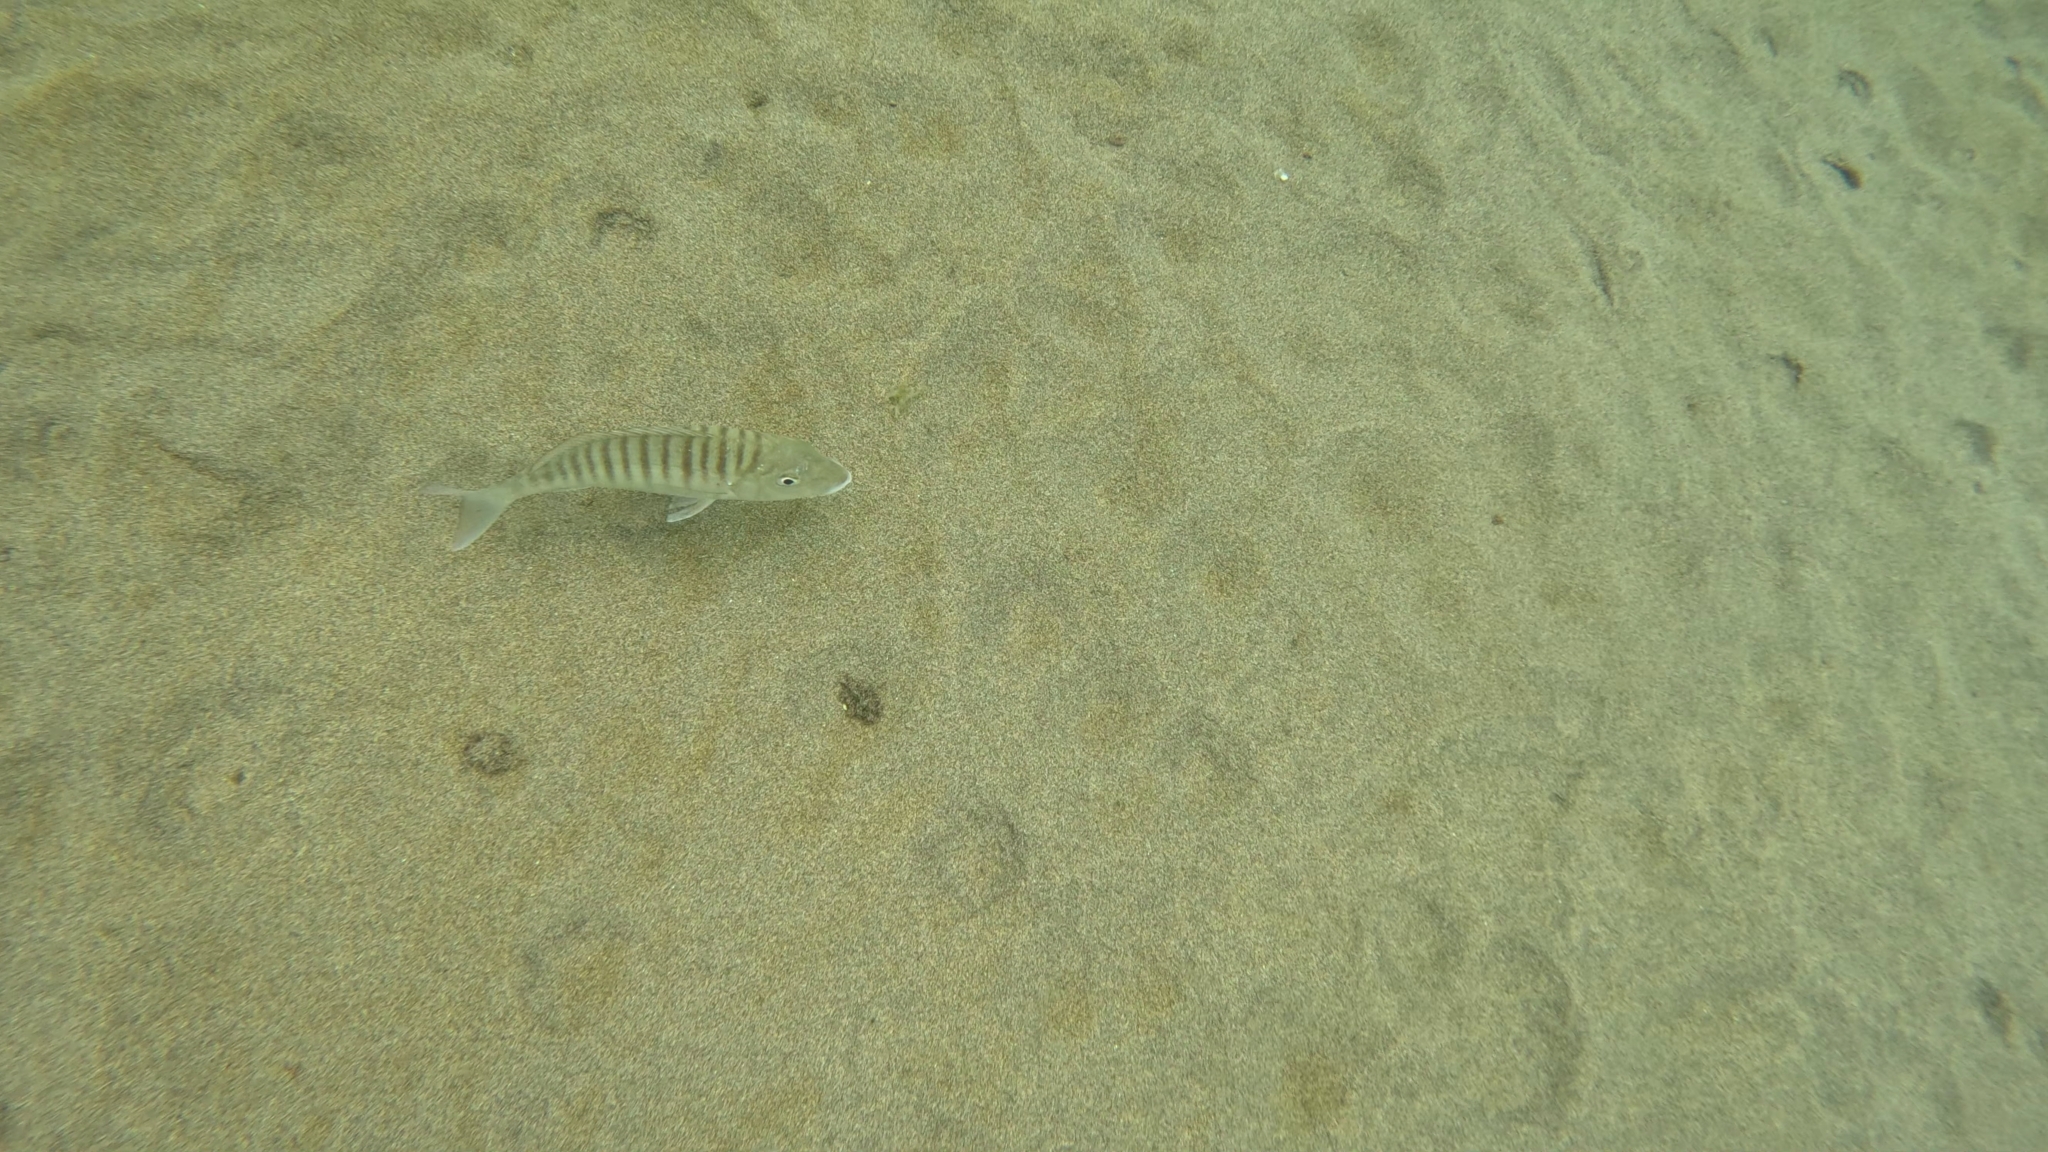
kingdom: Animalia
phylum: Chordata
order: Perciformes
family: Sparidae
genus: Lithognathus
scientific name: Lithognathus mormyrus
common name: Sand steenbras
